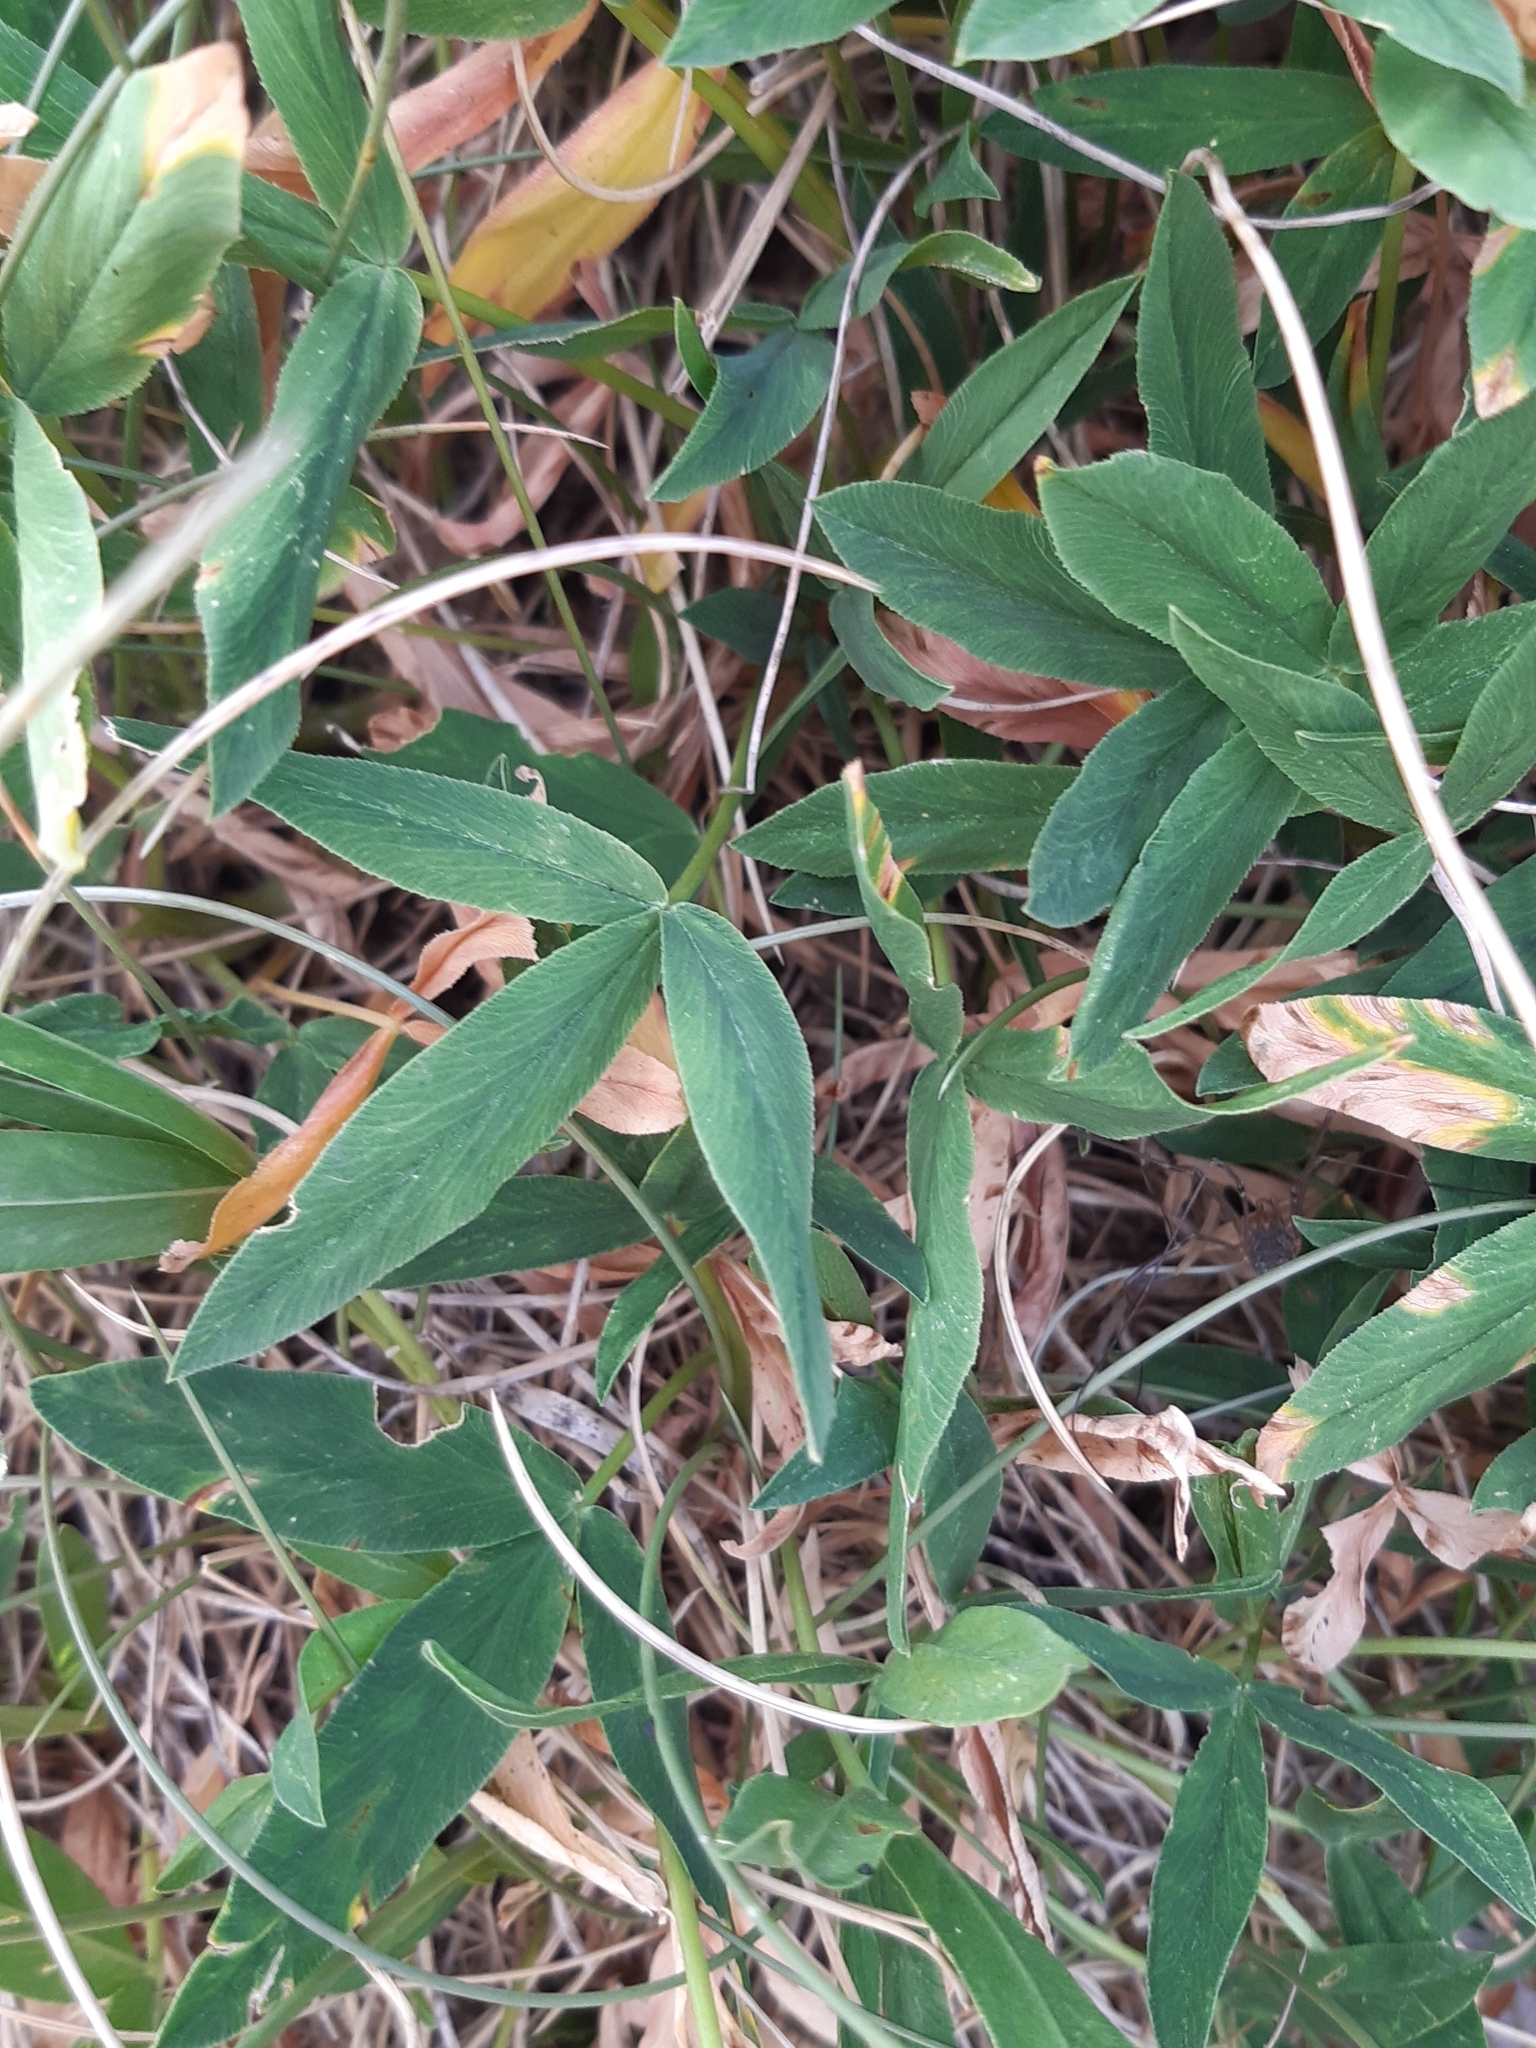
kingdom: Plantae
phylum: Tracheophyta
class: Magnoliopsida
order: Fabales
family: Fabaceae
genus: Trifolium
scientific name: Trifolium alpinum
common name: Alpine clover
